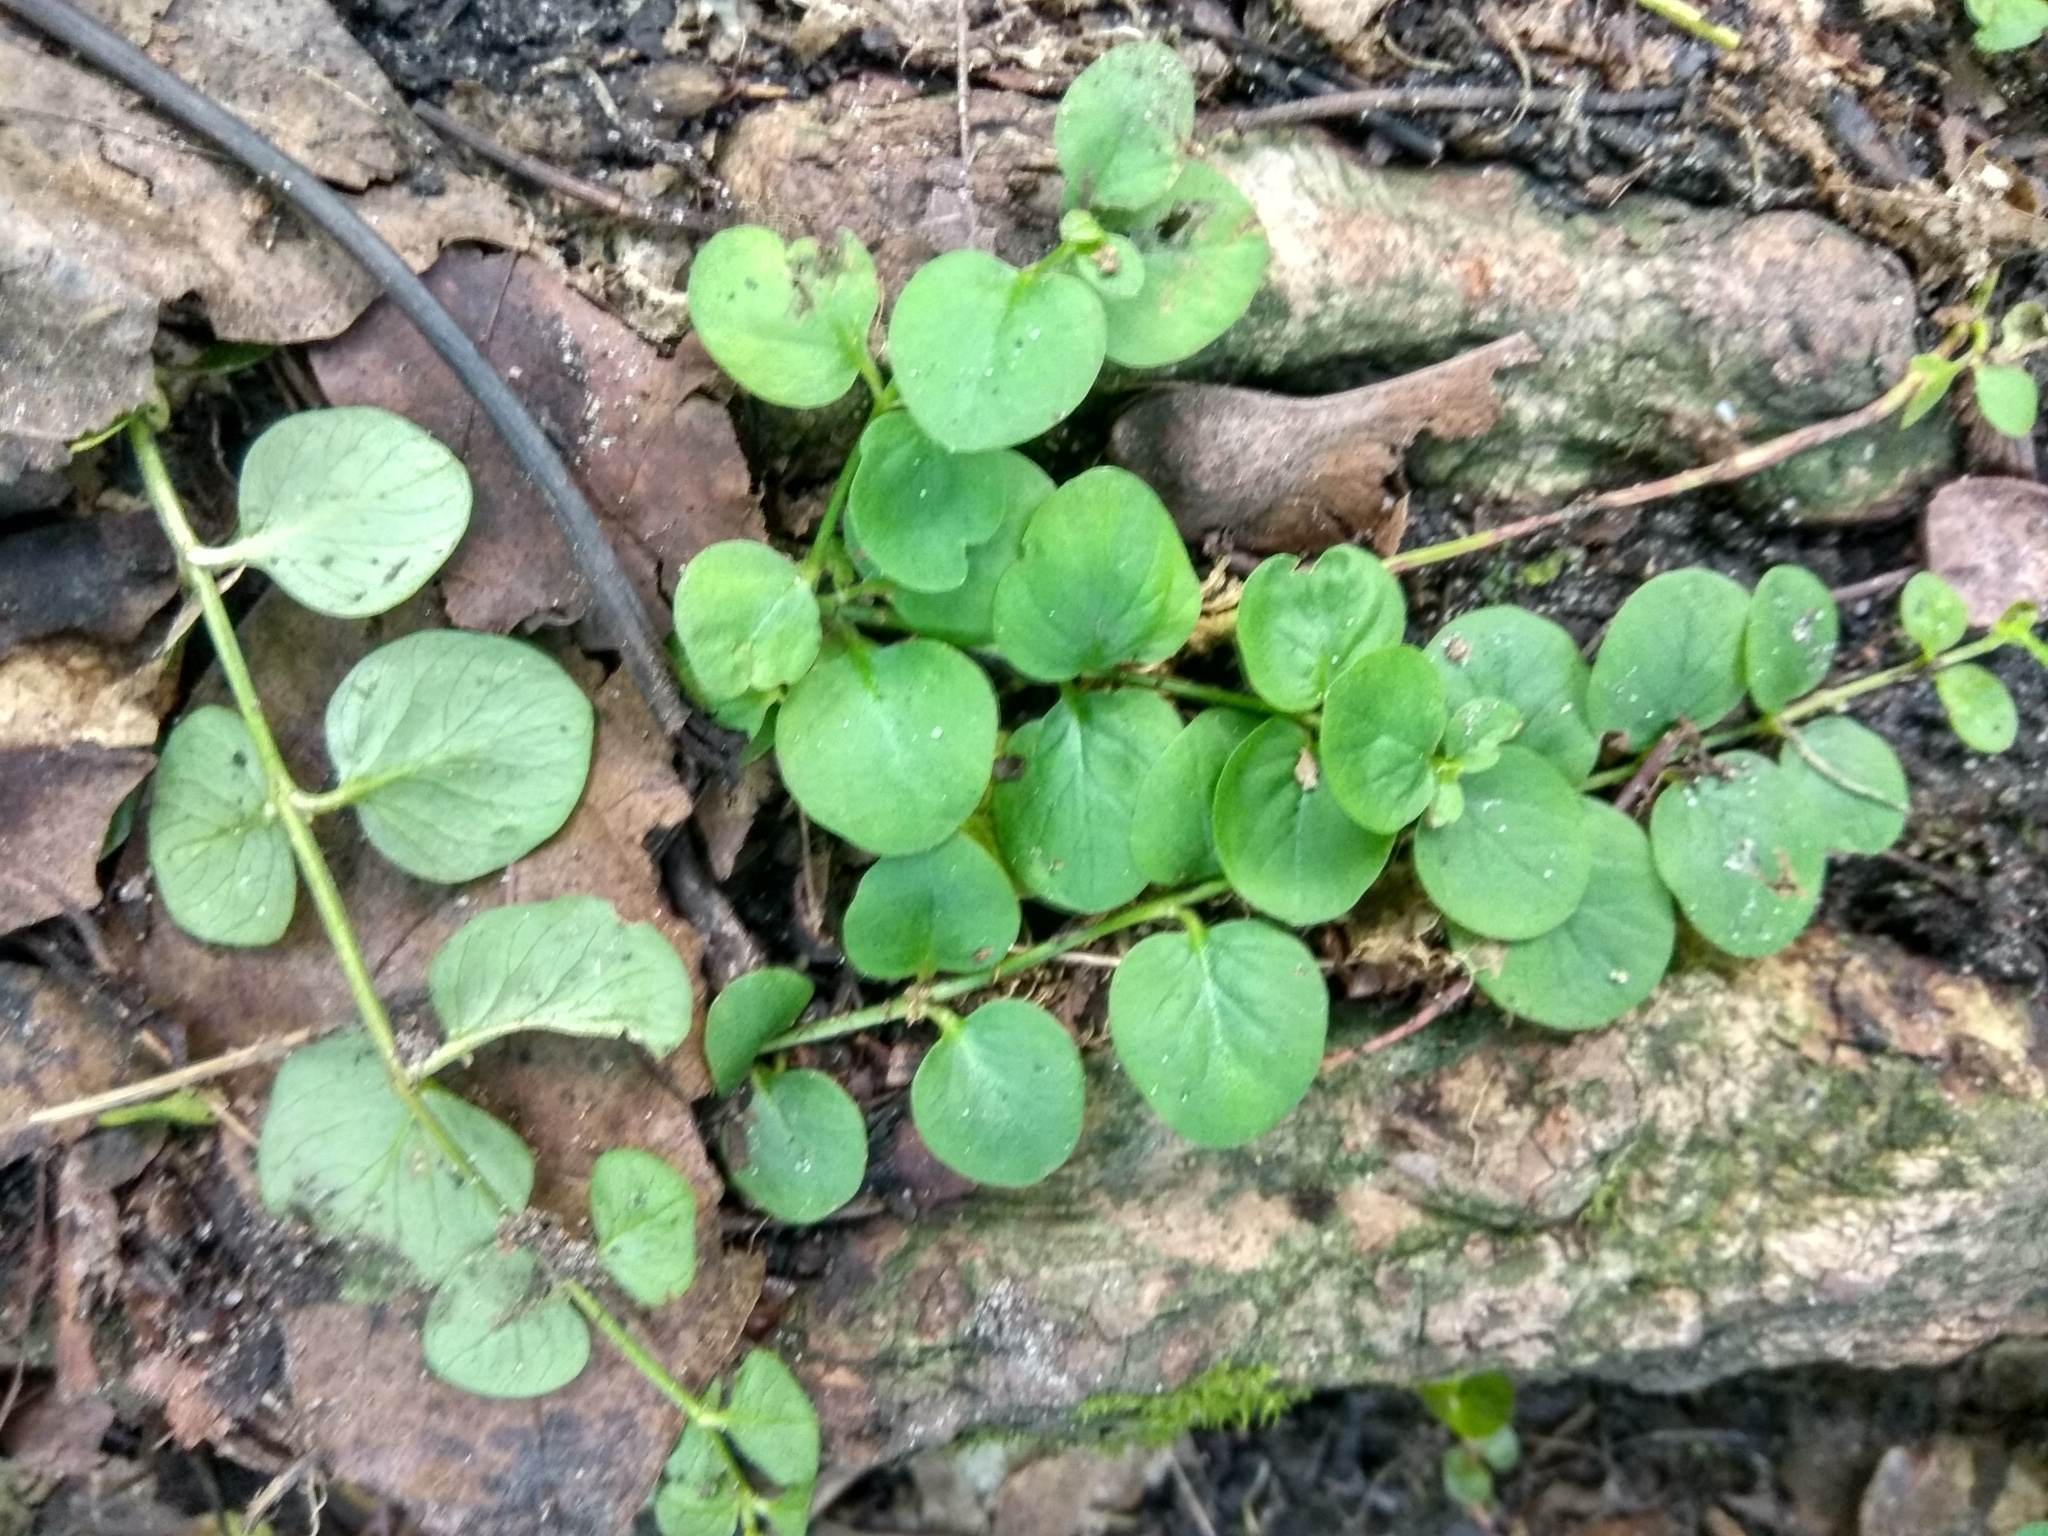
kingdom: Plantae
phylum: Tracheophyta
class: Magnoliopsida
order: Ericales
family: Primulaceae
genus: Lysimachia
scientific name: Lysimachia nummularia
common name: Moneywort
